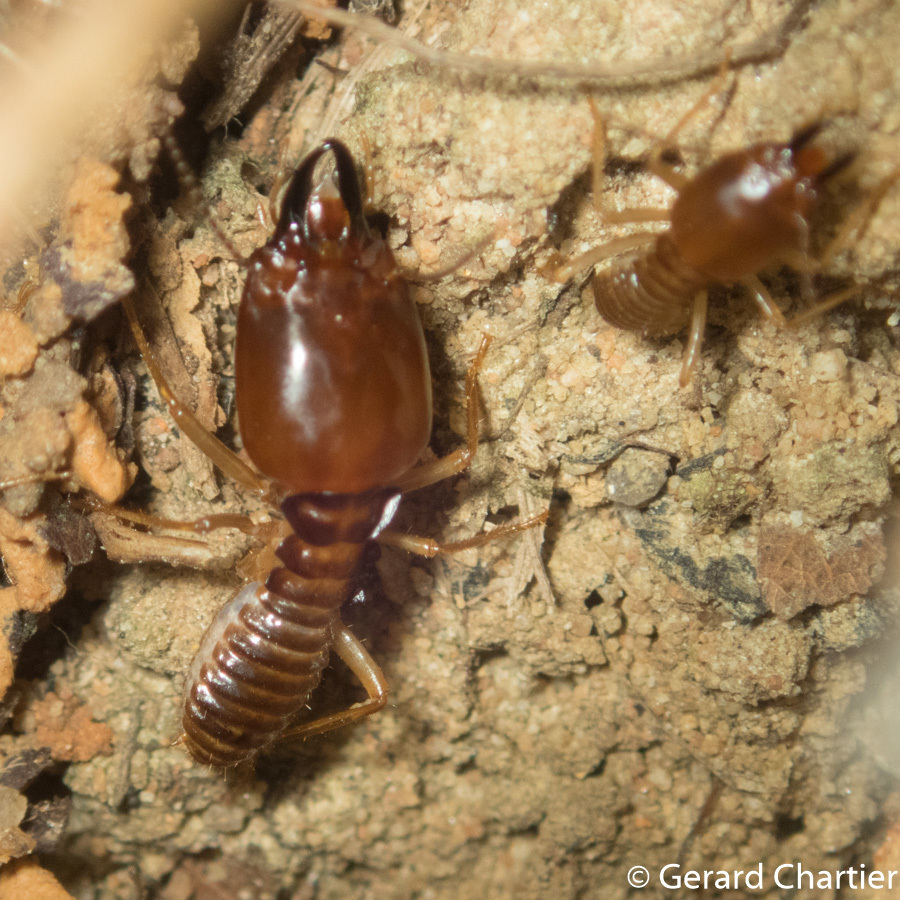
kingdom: Animalia
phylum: Arthropoda
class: Insecta
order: Blattodea
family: Termitidae
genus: Macrotermes
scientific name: Macrotermes annandalei
